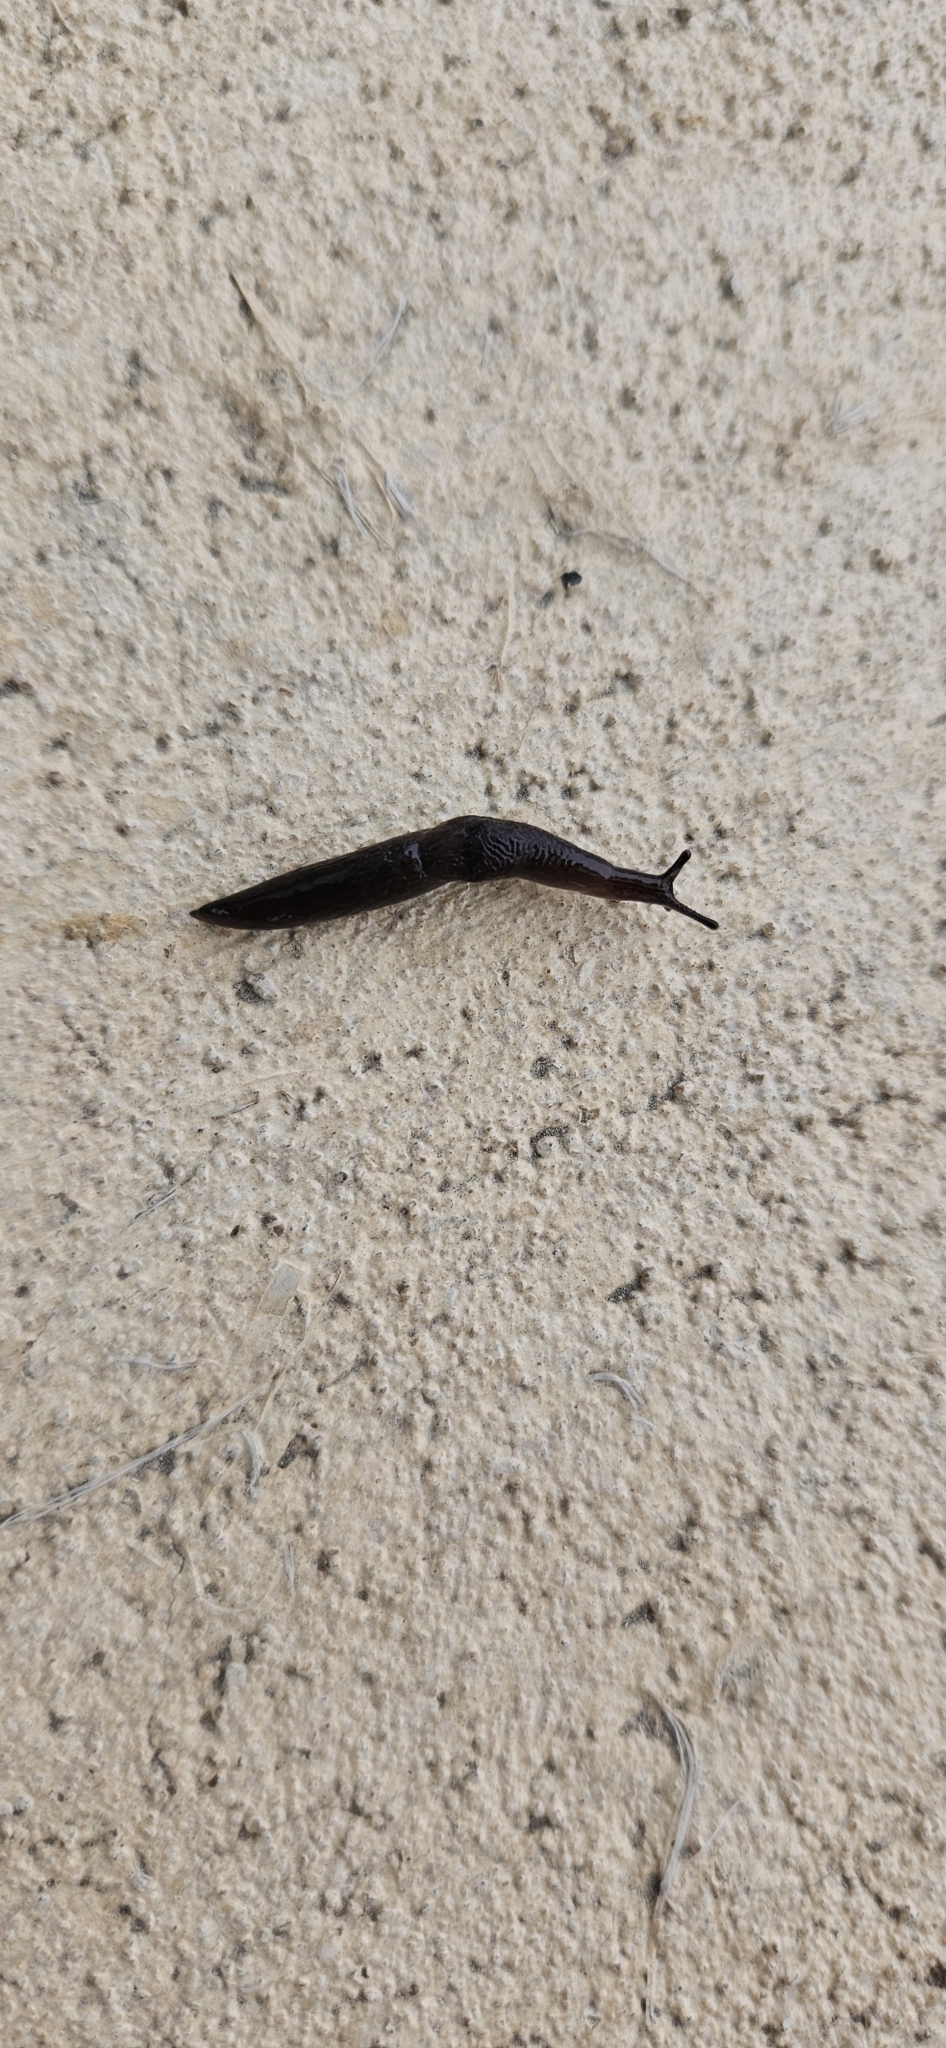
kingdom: Animalia
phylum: Mollusca
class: Gastropoda
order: Stylommatophora
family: Agriolimacidae
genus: Deroceras
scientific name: Deroceras laeve
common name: Marsh slug
